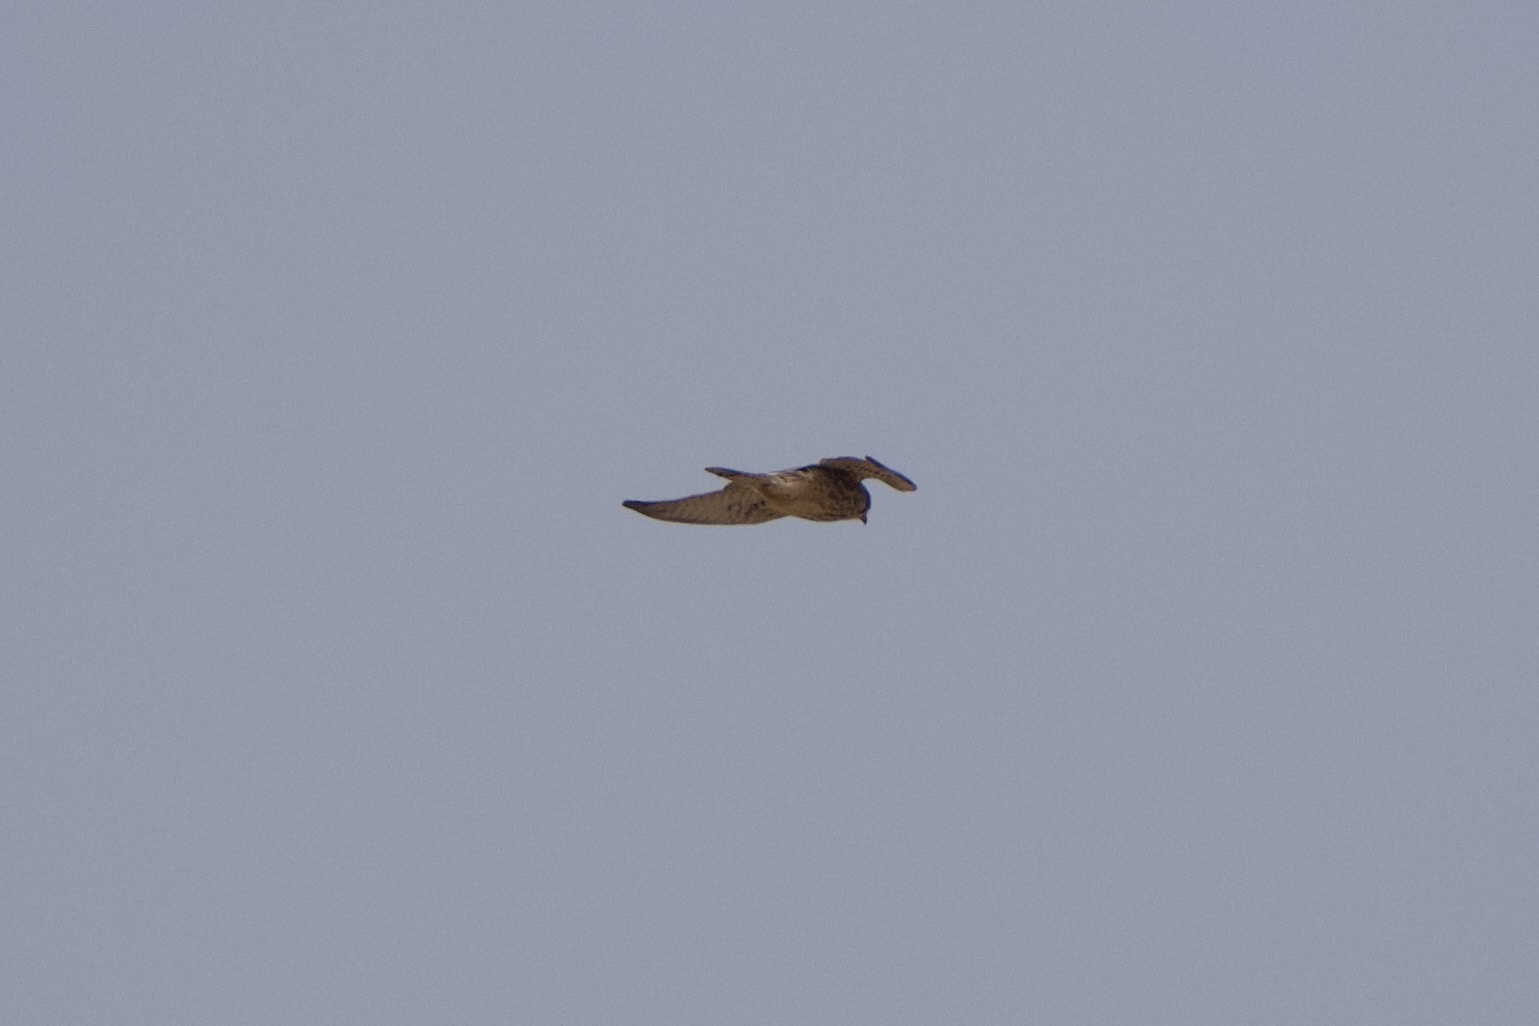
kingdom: Animalia
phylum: Chordata
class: Aves
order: Falconiformes
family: Falconidae
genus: Falco
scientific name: Falco tinnunculus
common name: Common kestrel
